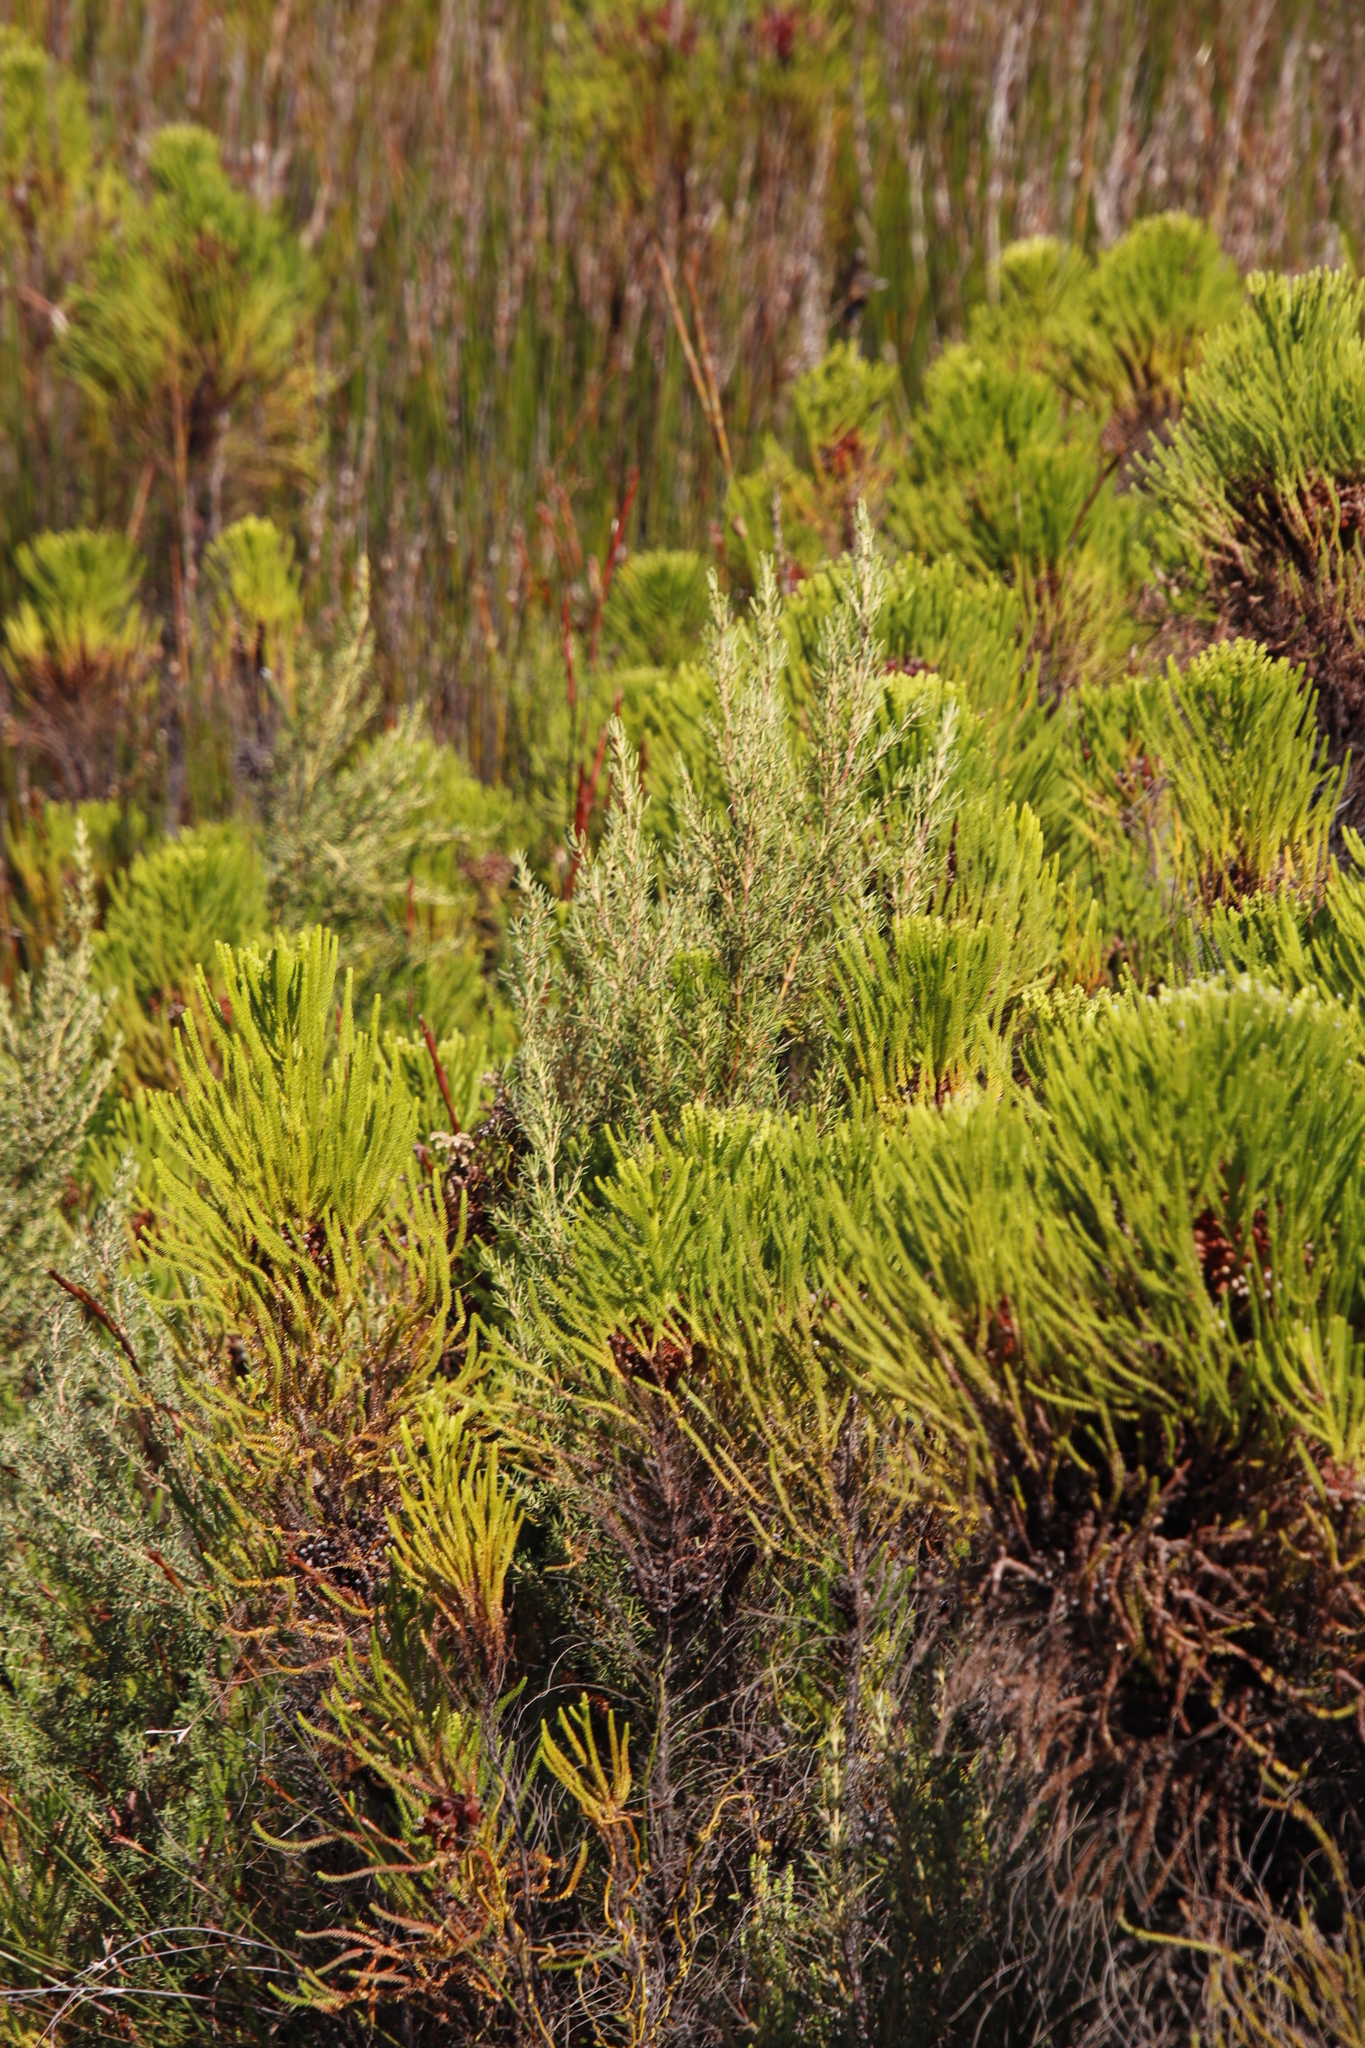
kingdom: Plantae
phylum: Tracheophyta
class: Magnoliopsida
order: Cornales
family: Grubbiaceae
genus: Grubbia
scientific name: Grubbia rosmarinifolia
